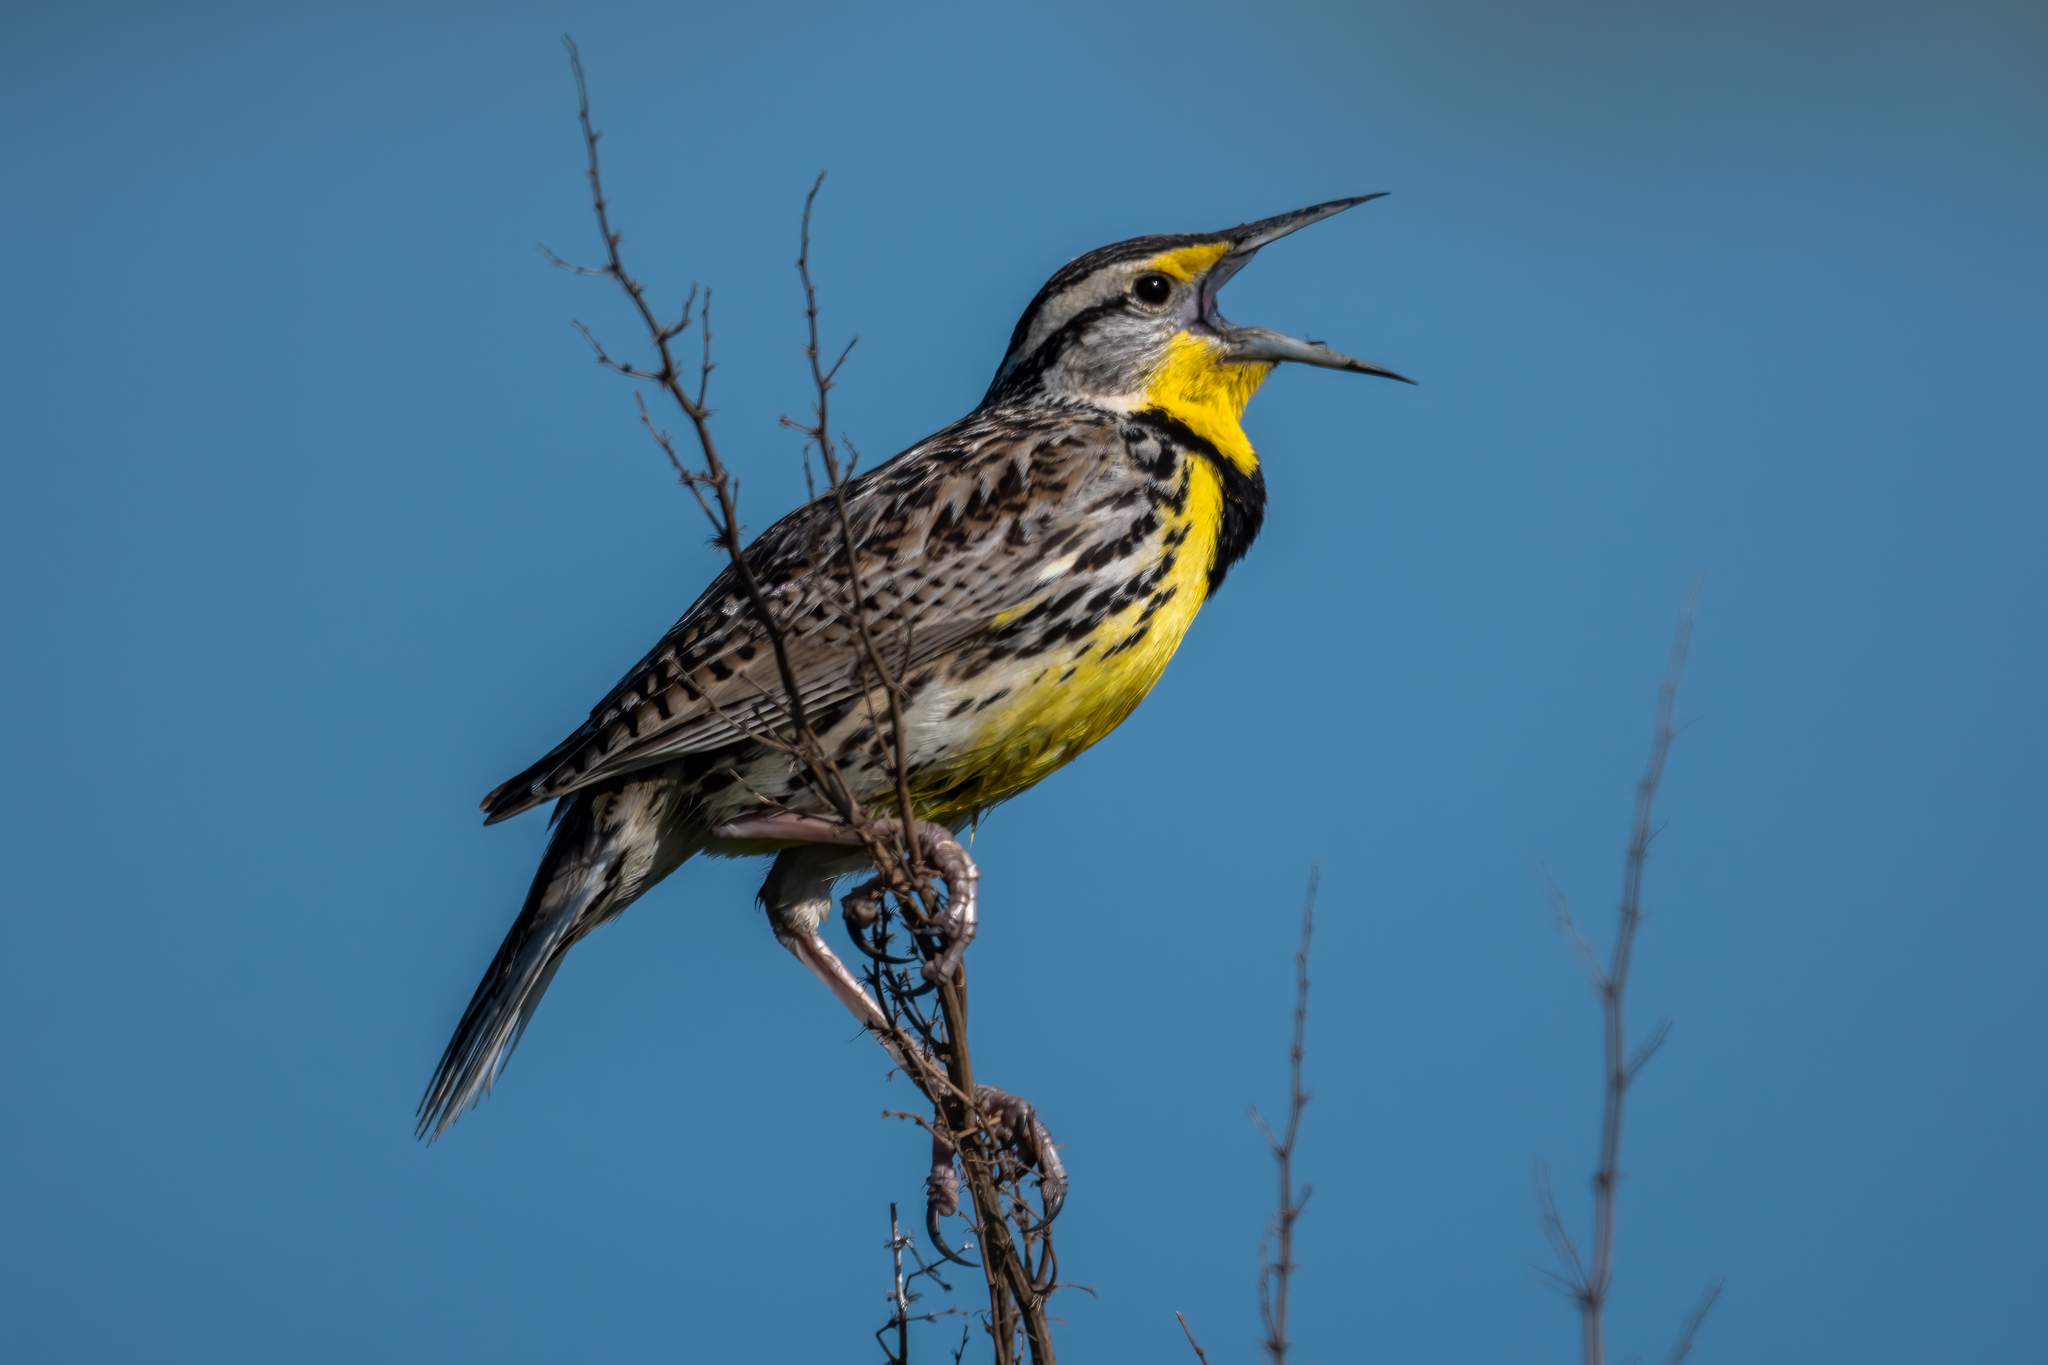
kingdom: Animalia
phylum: Chordata
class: Aves
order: Passeriformes
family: Icteridae
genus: Sturnella
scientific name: Sturnella neglecta
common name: Western meadowlark
